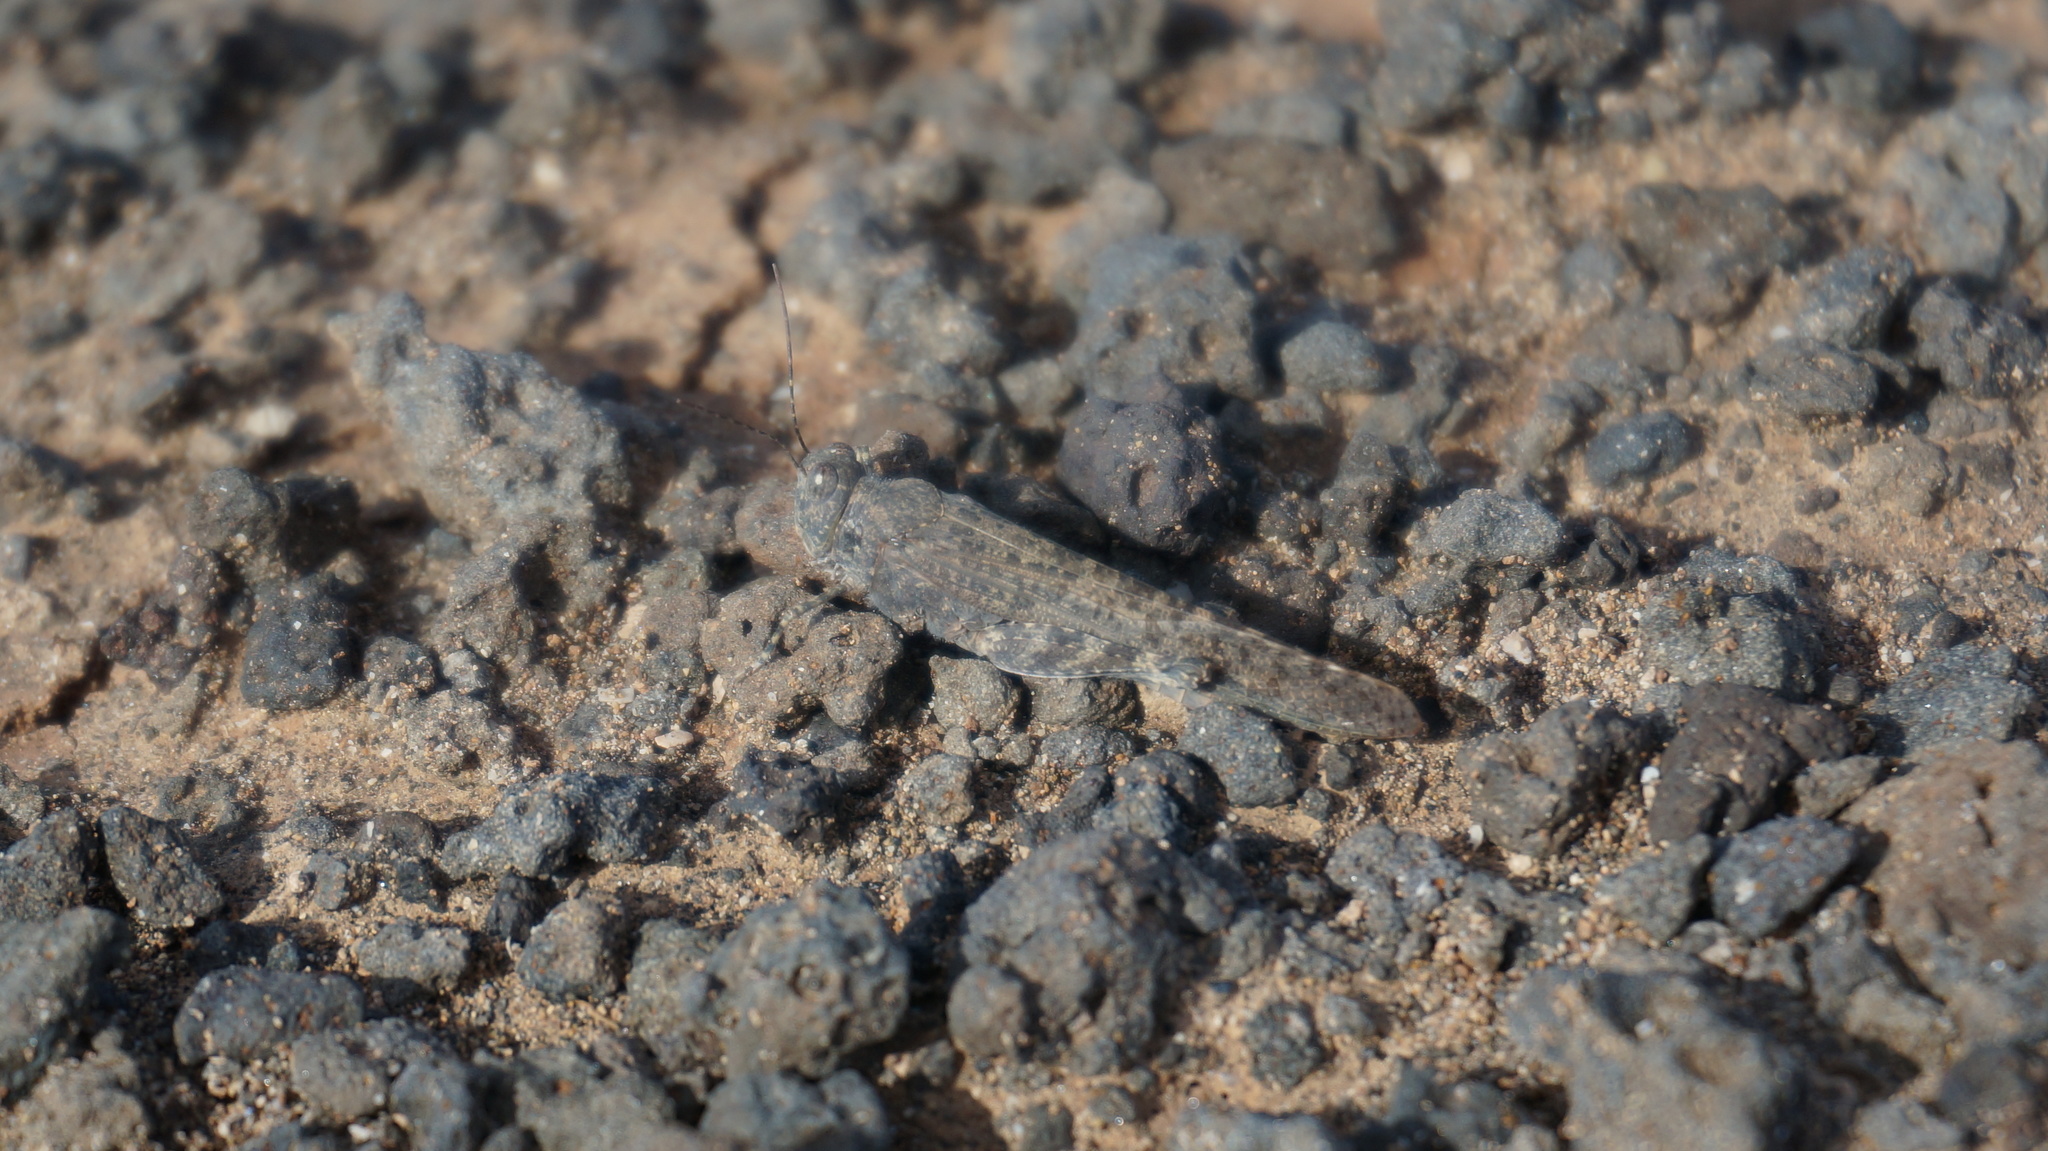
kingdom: Animalia
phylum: Arthropoda
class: Insecta
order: Orthoptera
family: Acrididae
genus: Sphingonotus
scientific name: Sphingonotus rubescens
